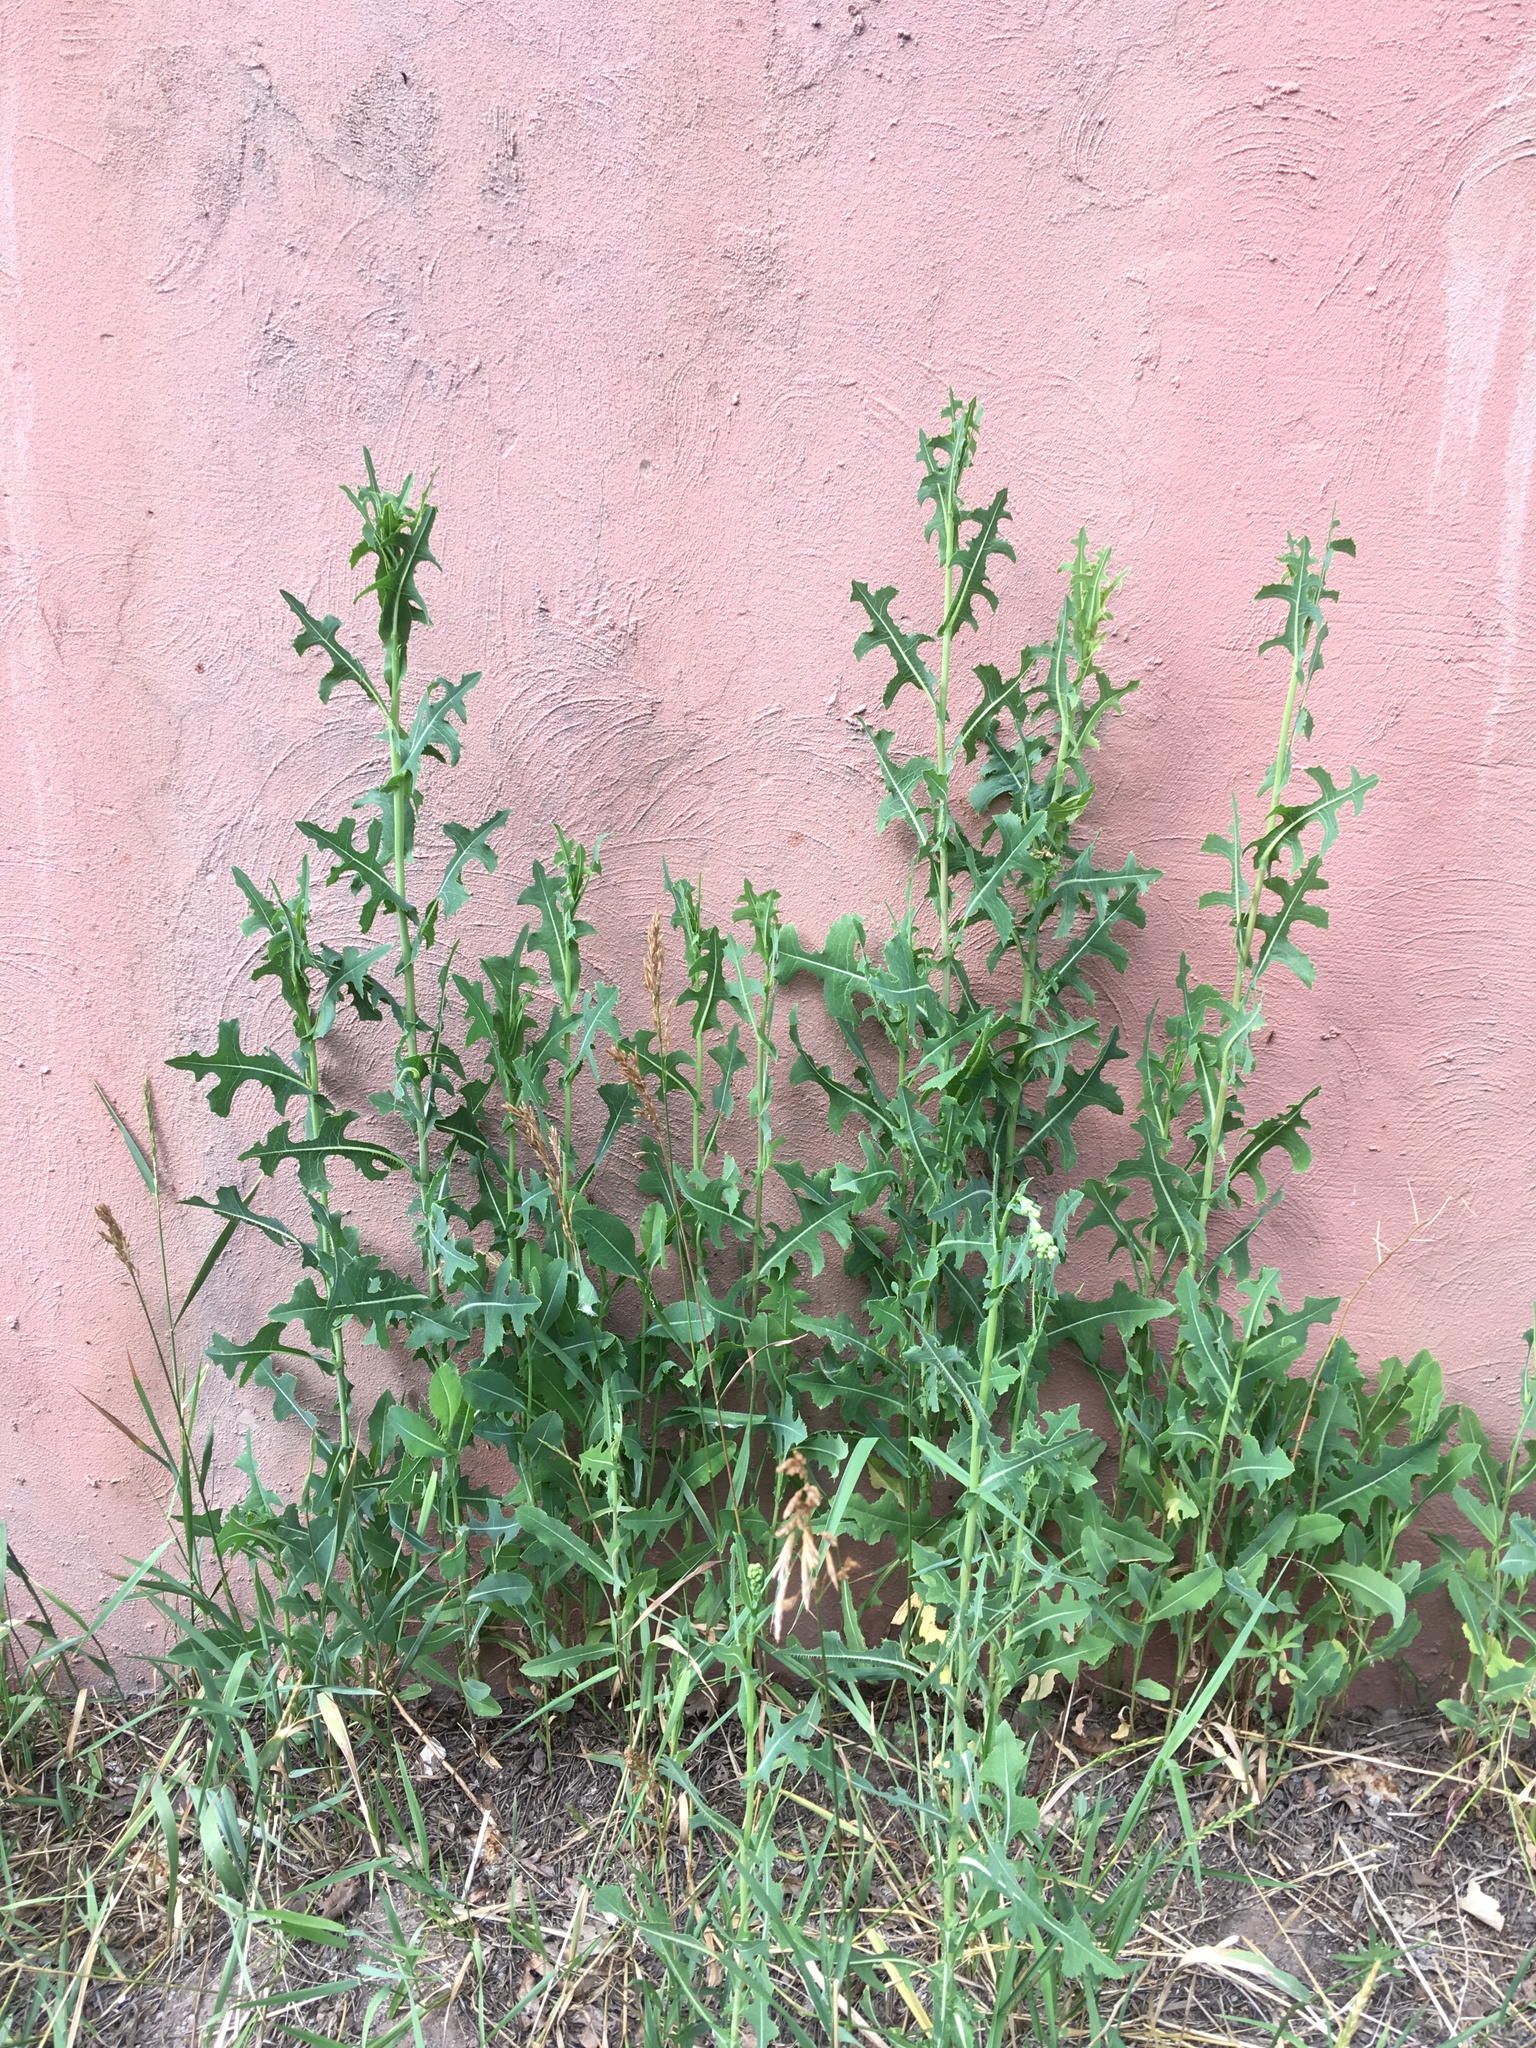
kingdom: Plantae
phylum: Tracheophyta
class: Magnoliopsida
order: Asterales
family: Asteraceae
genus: Lactuca
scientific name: Lactuca serriola
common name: Prickly lettuce
